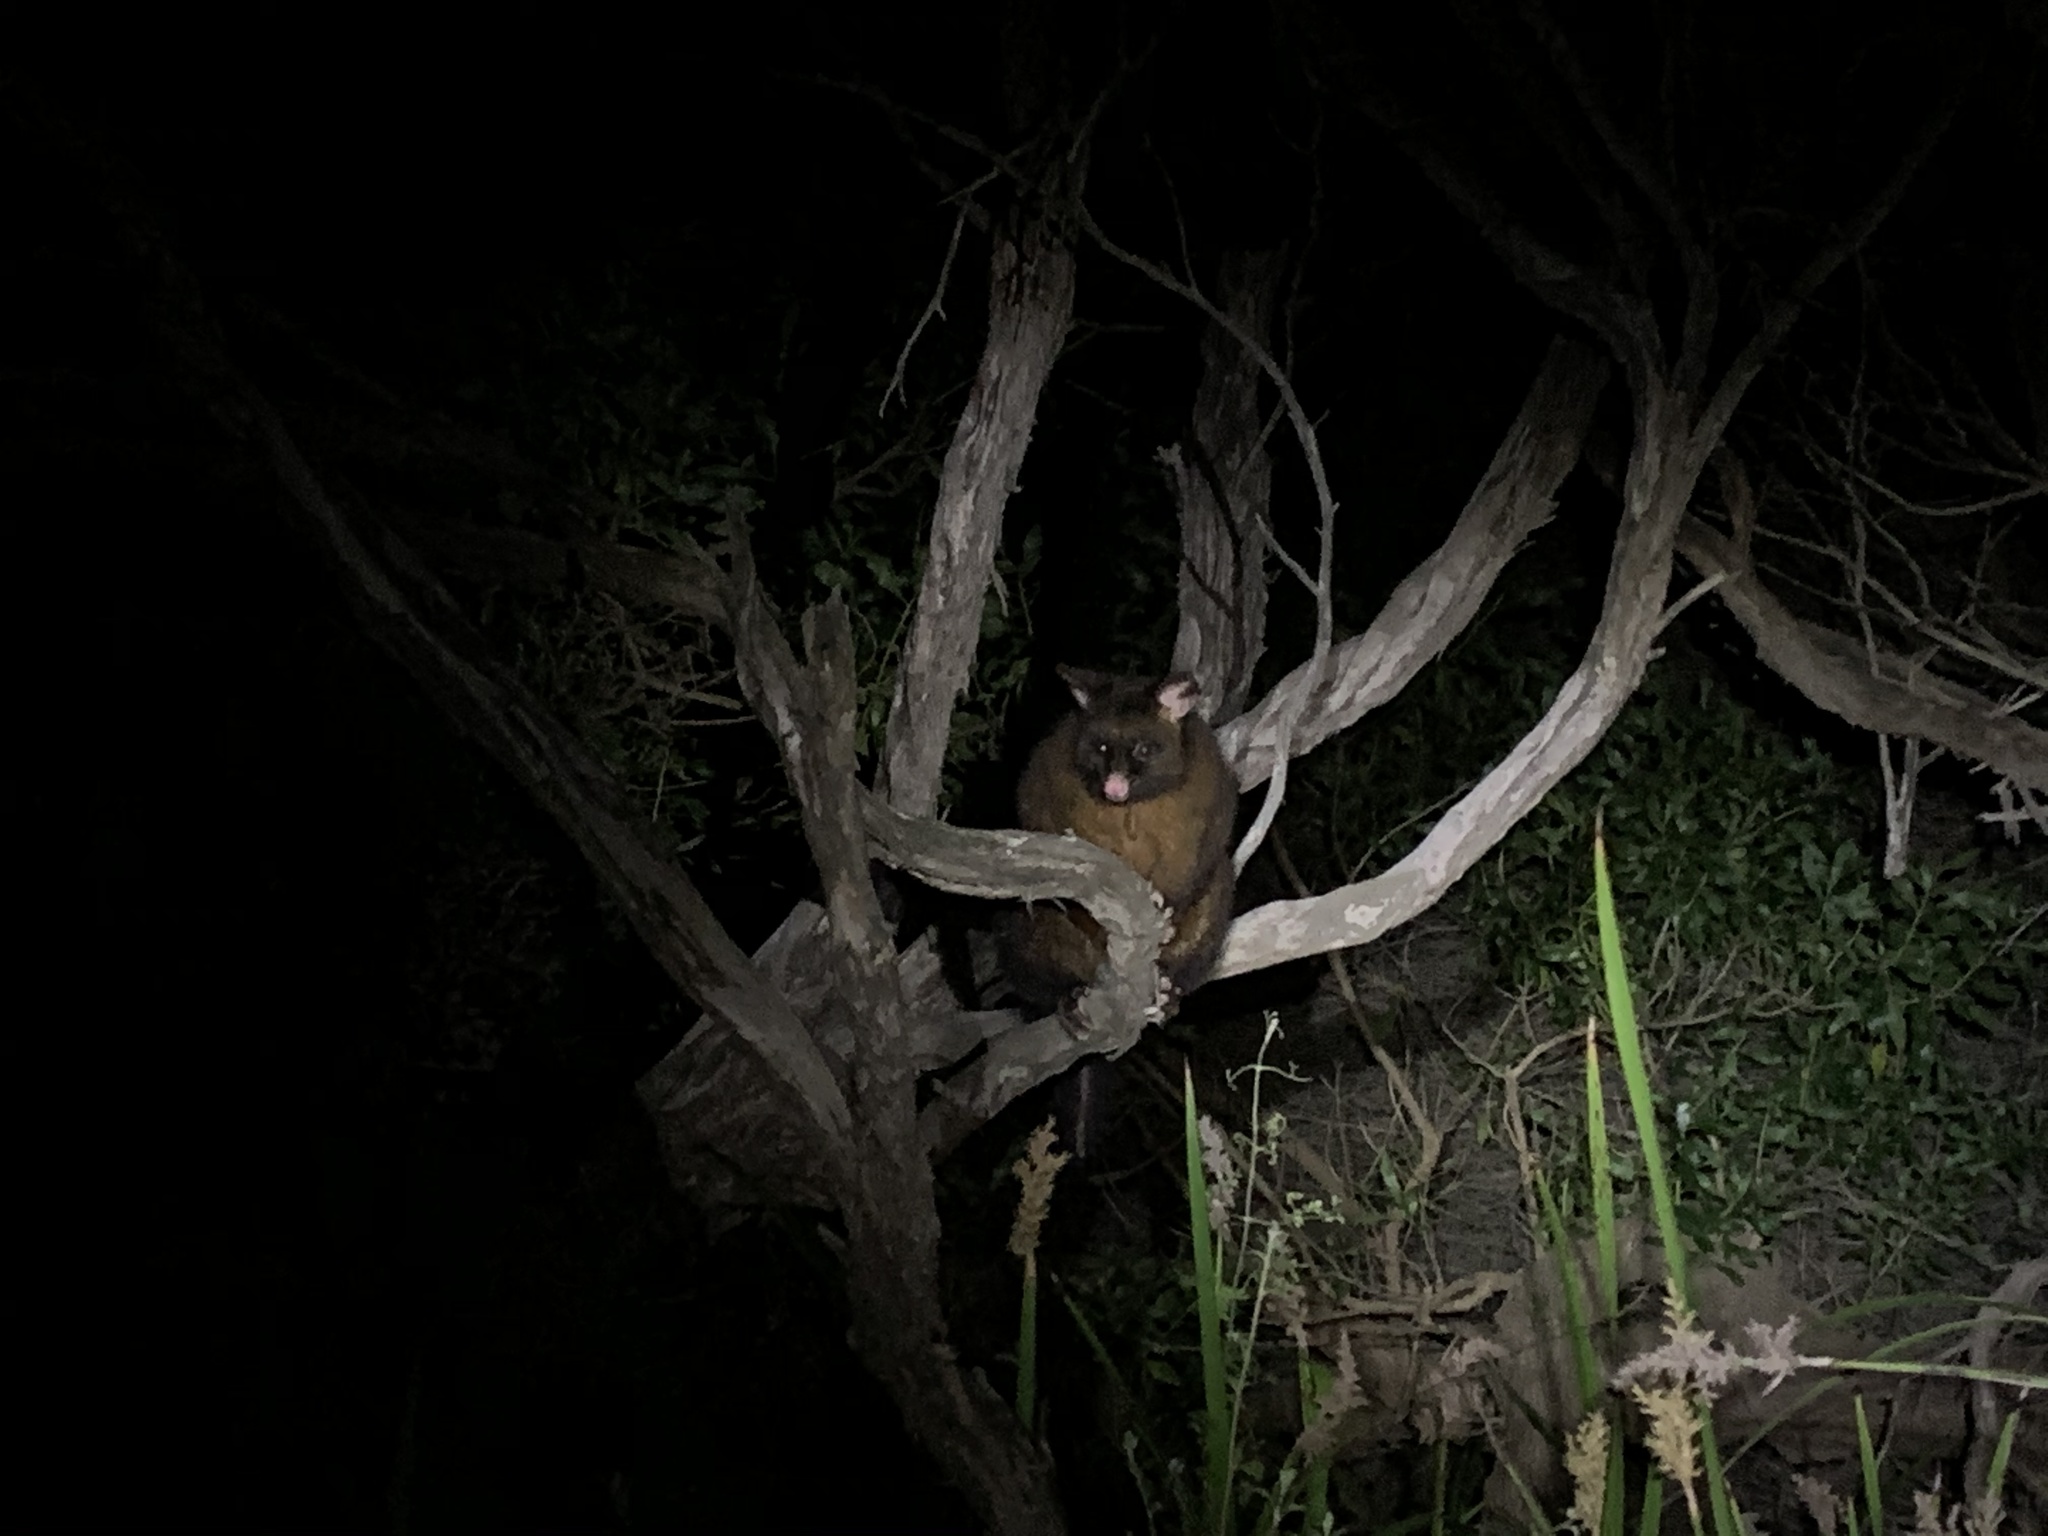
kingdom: Animalia
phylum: Chordata
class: Mammalia
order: Diprotodontia
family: Phalangeridae
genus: Trichosurus
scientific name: Trichosurus vulpecula
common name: Common brushtail
